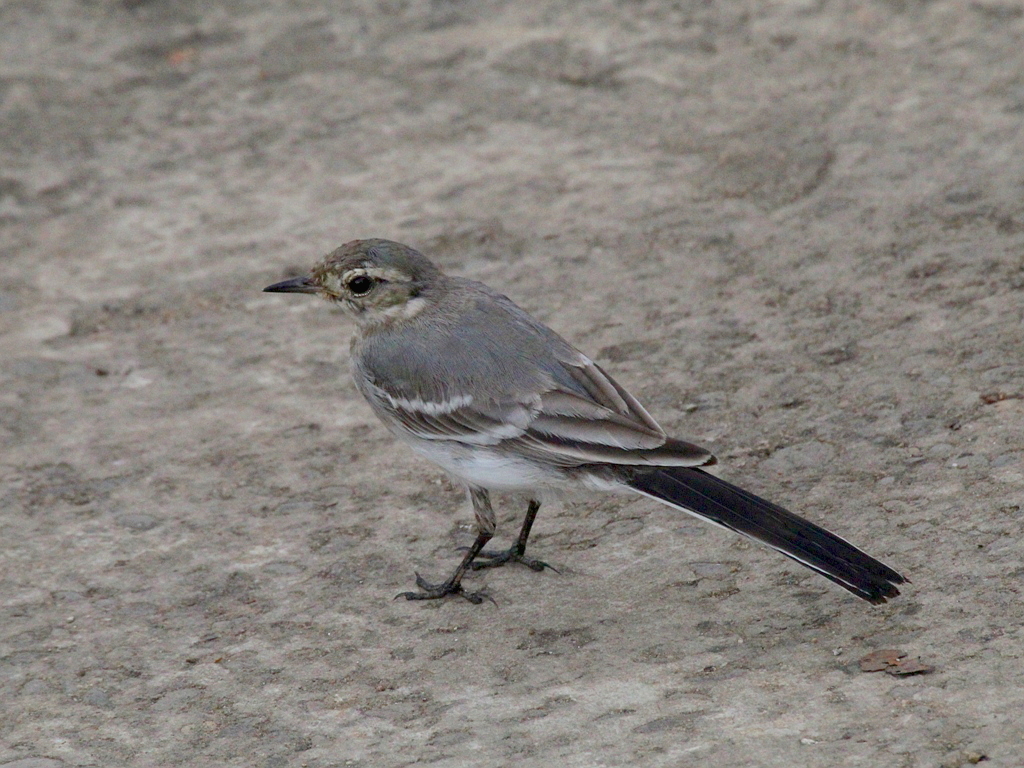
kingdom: Animalia
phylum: Chordata
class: Aves
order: Passeriformes
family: Motacillidae
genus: Motacilla
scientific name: Motacilla alba
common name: White wagtail
